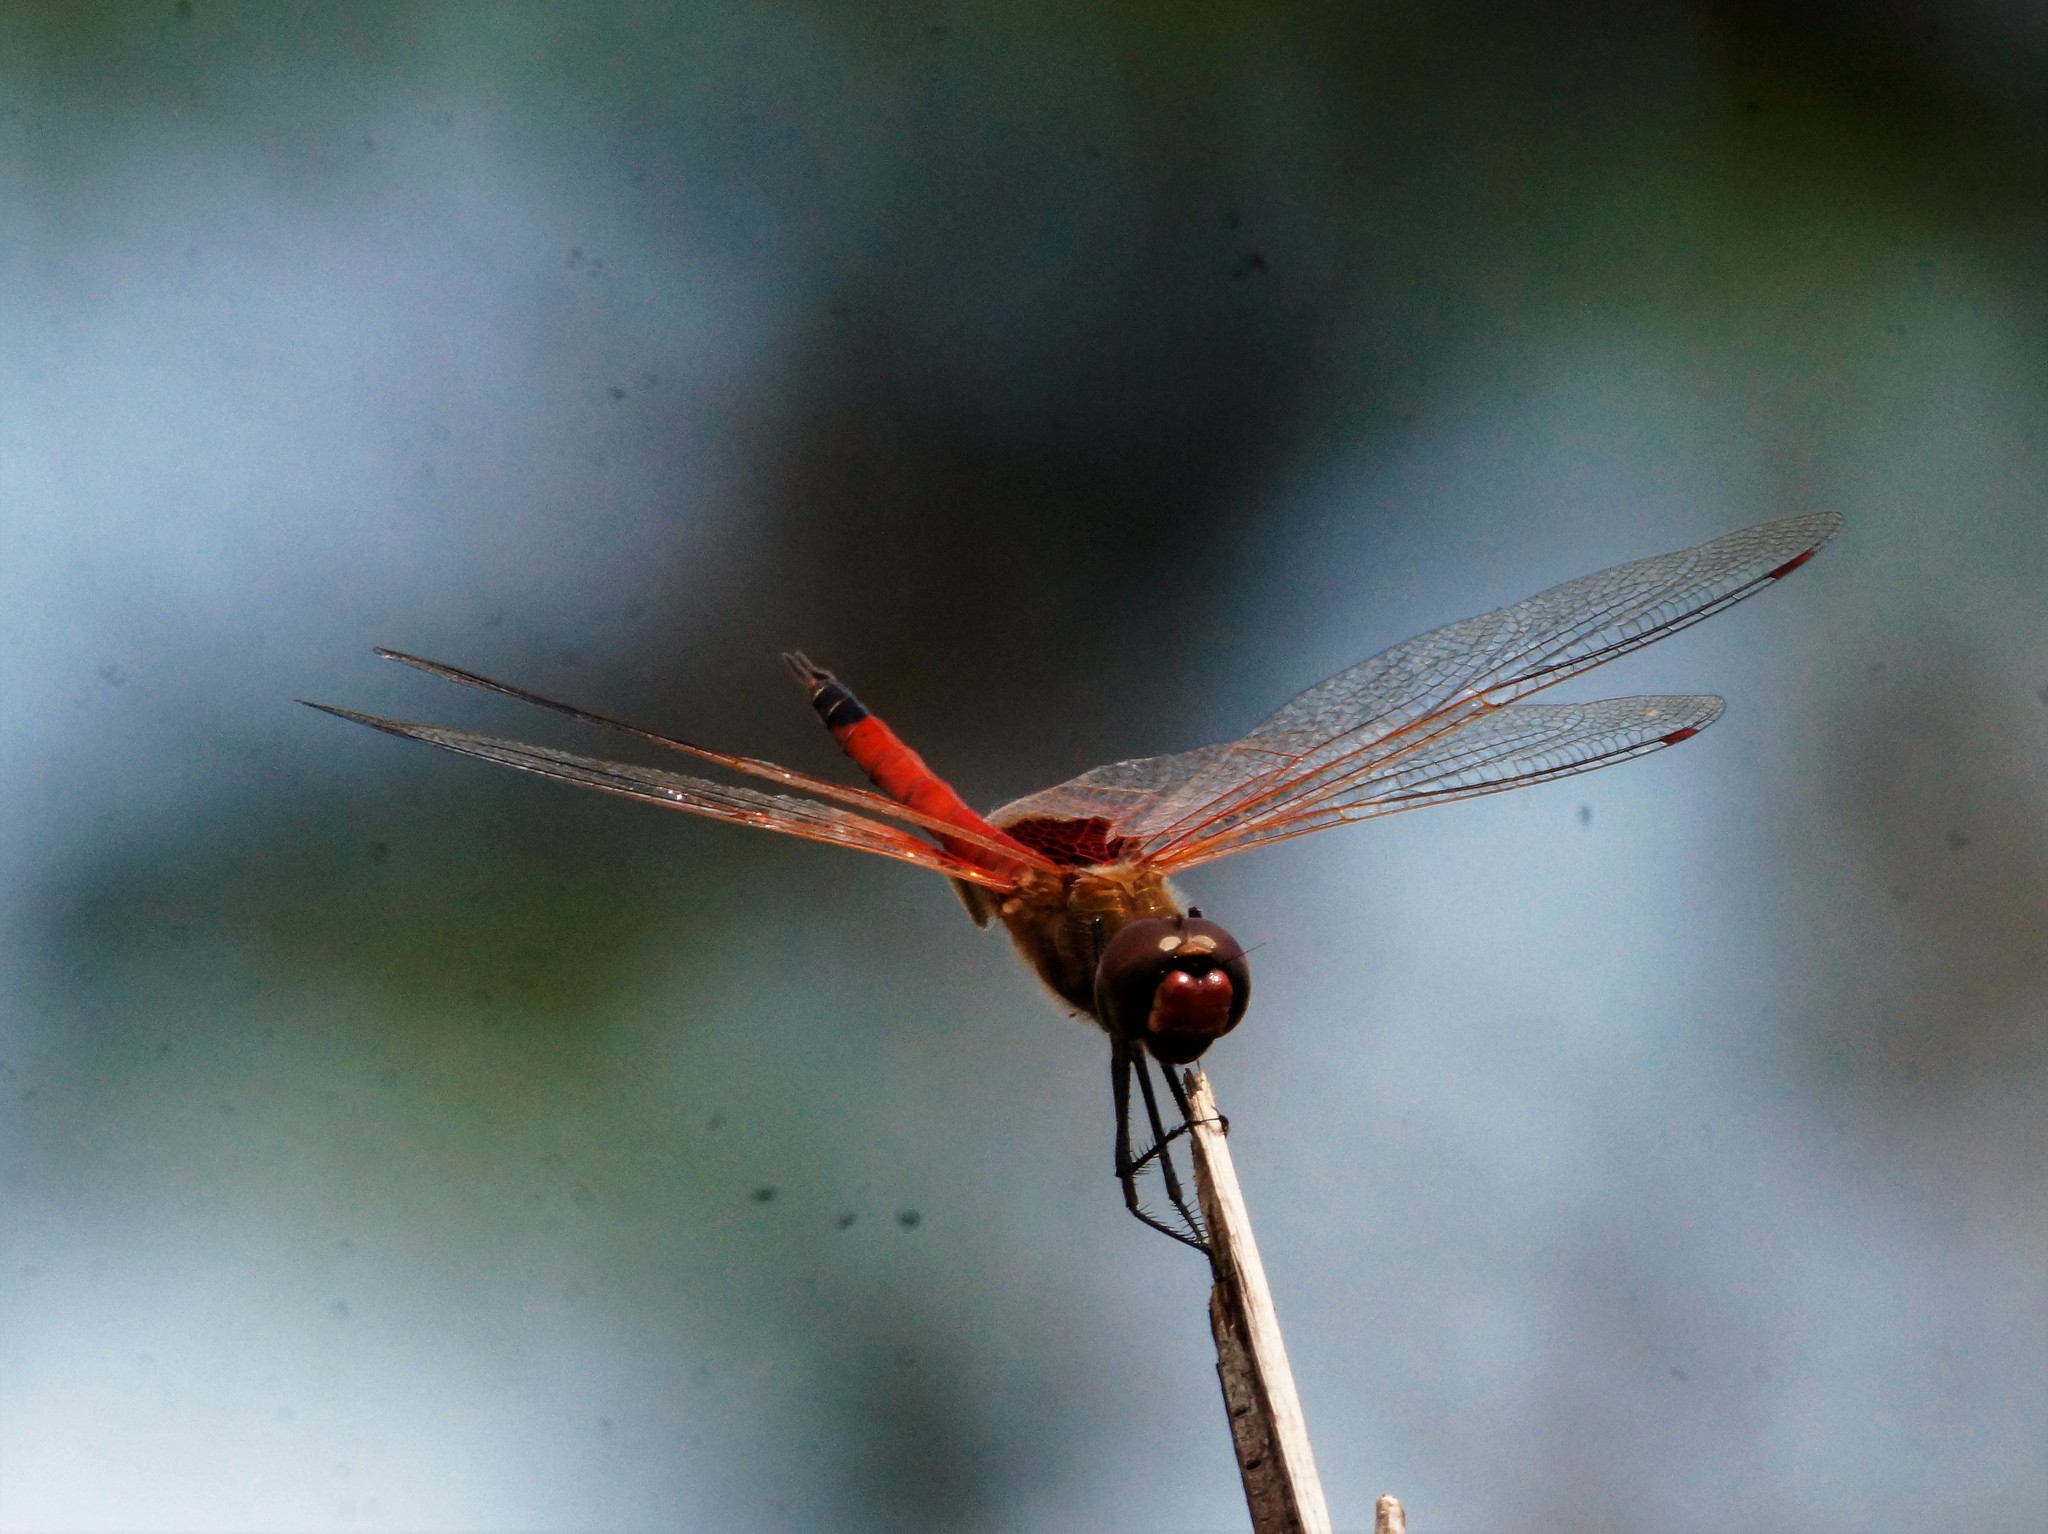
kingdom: Animalia
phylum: Arthropoda
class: Insecta
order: Odonata
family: Libellulidae
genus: Tramea
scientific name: Tramea loewii
